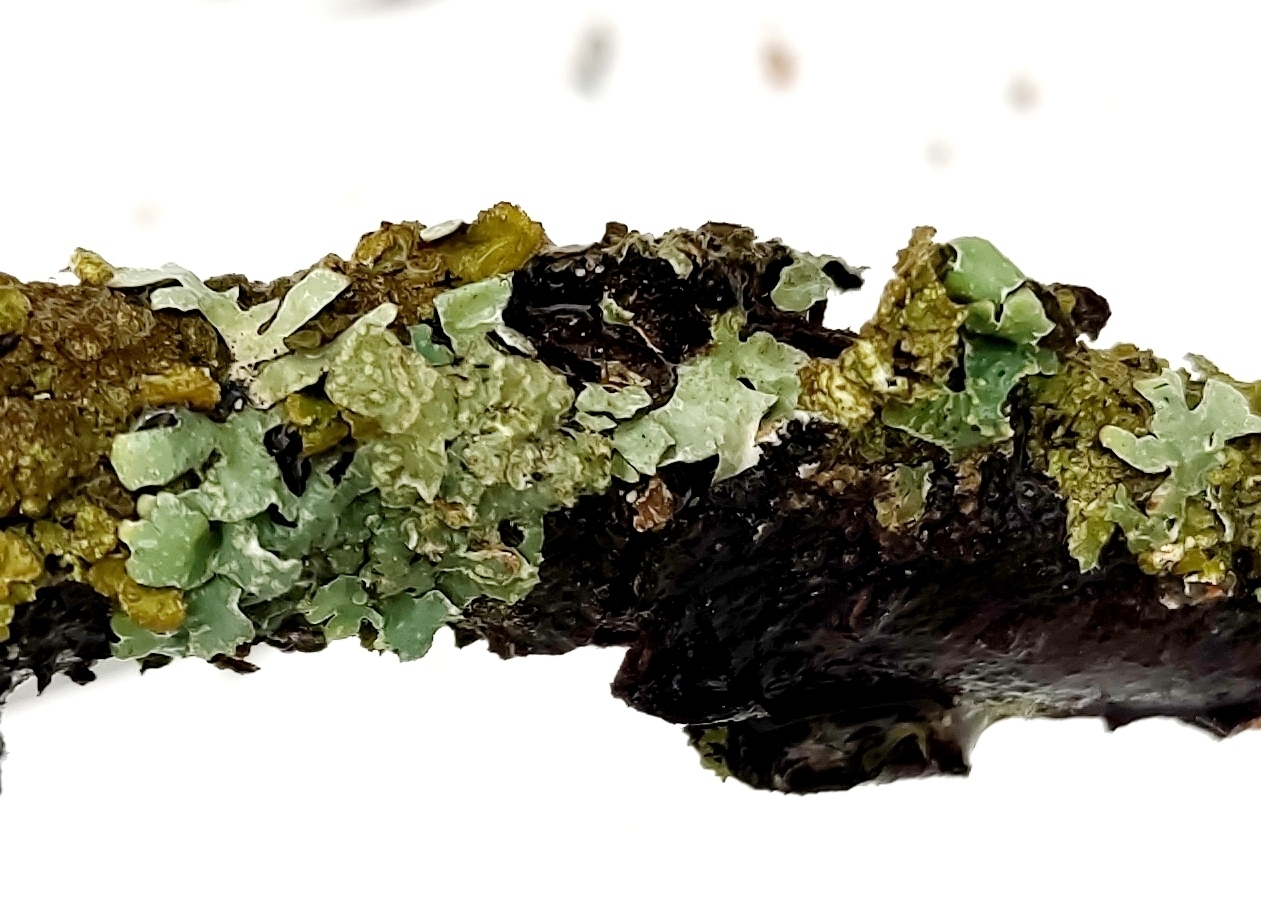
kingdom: Fungi
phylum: Ascomycota
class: Lecanoromycetes
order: Lecanorales
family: Parmeliaceae
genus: Parmelia
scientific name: Parmelia sulcata
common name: Netted shield lichen
